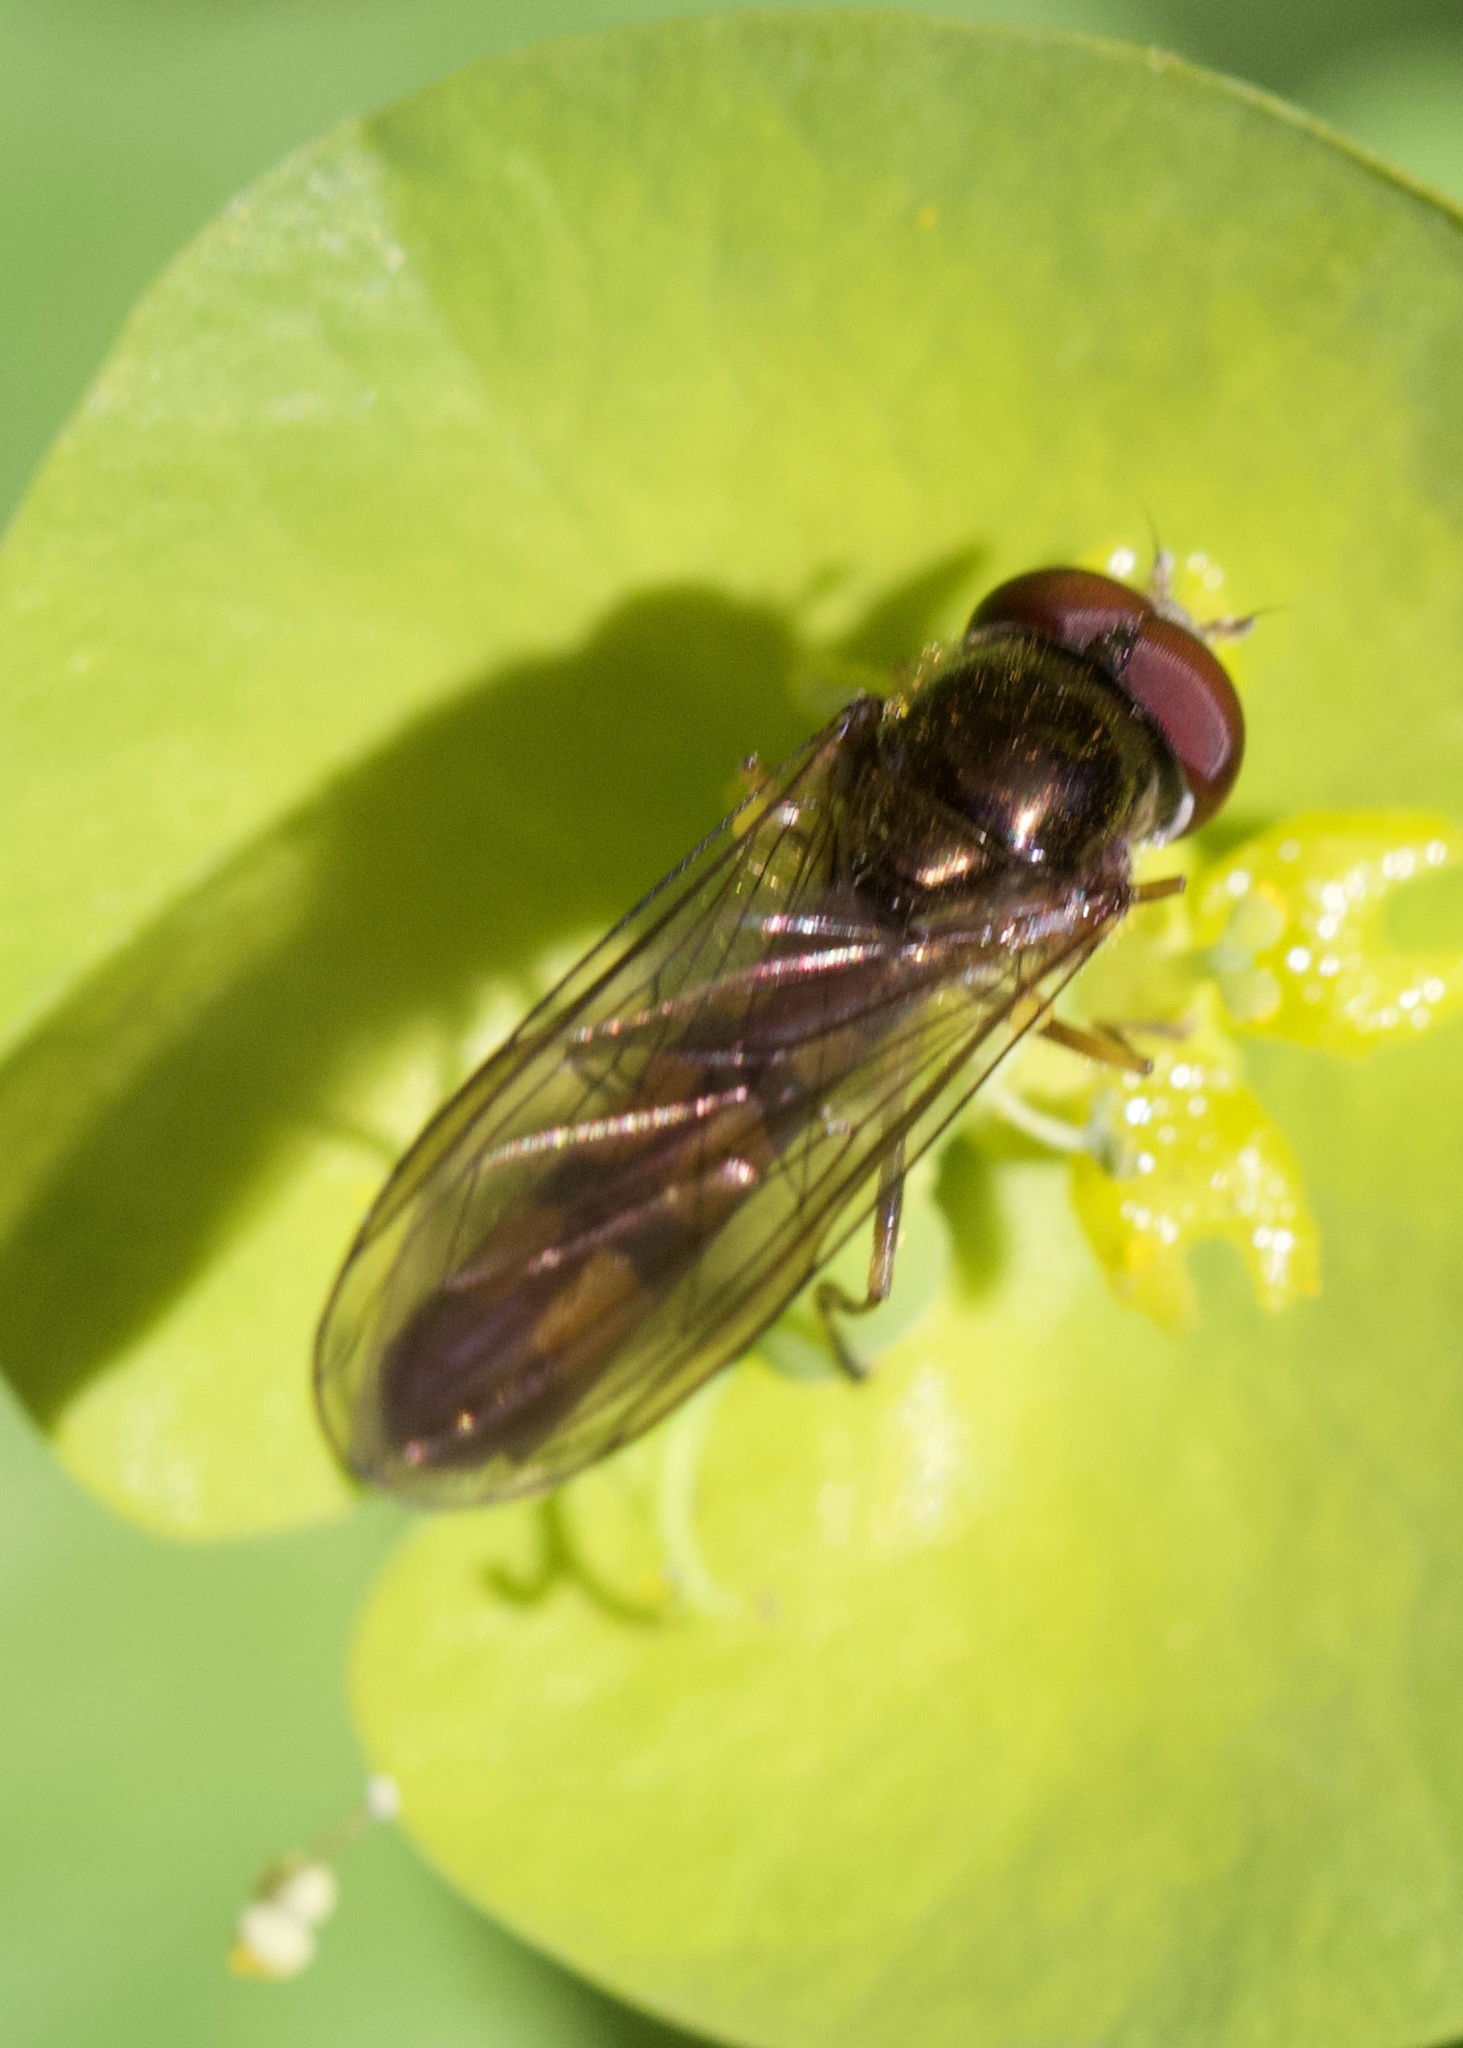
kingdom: Animalia
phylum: Arthropoda
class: Insecta
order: Diptera
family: Syrphidae
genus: Melanostoma
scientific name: Melanostoma scalare
